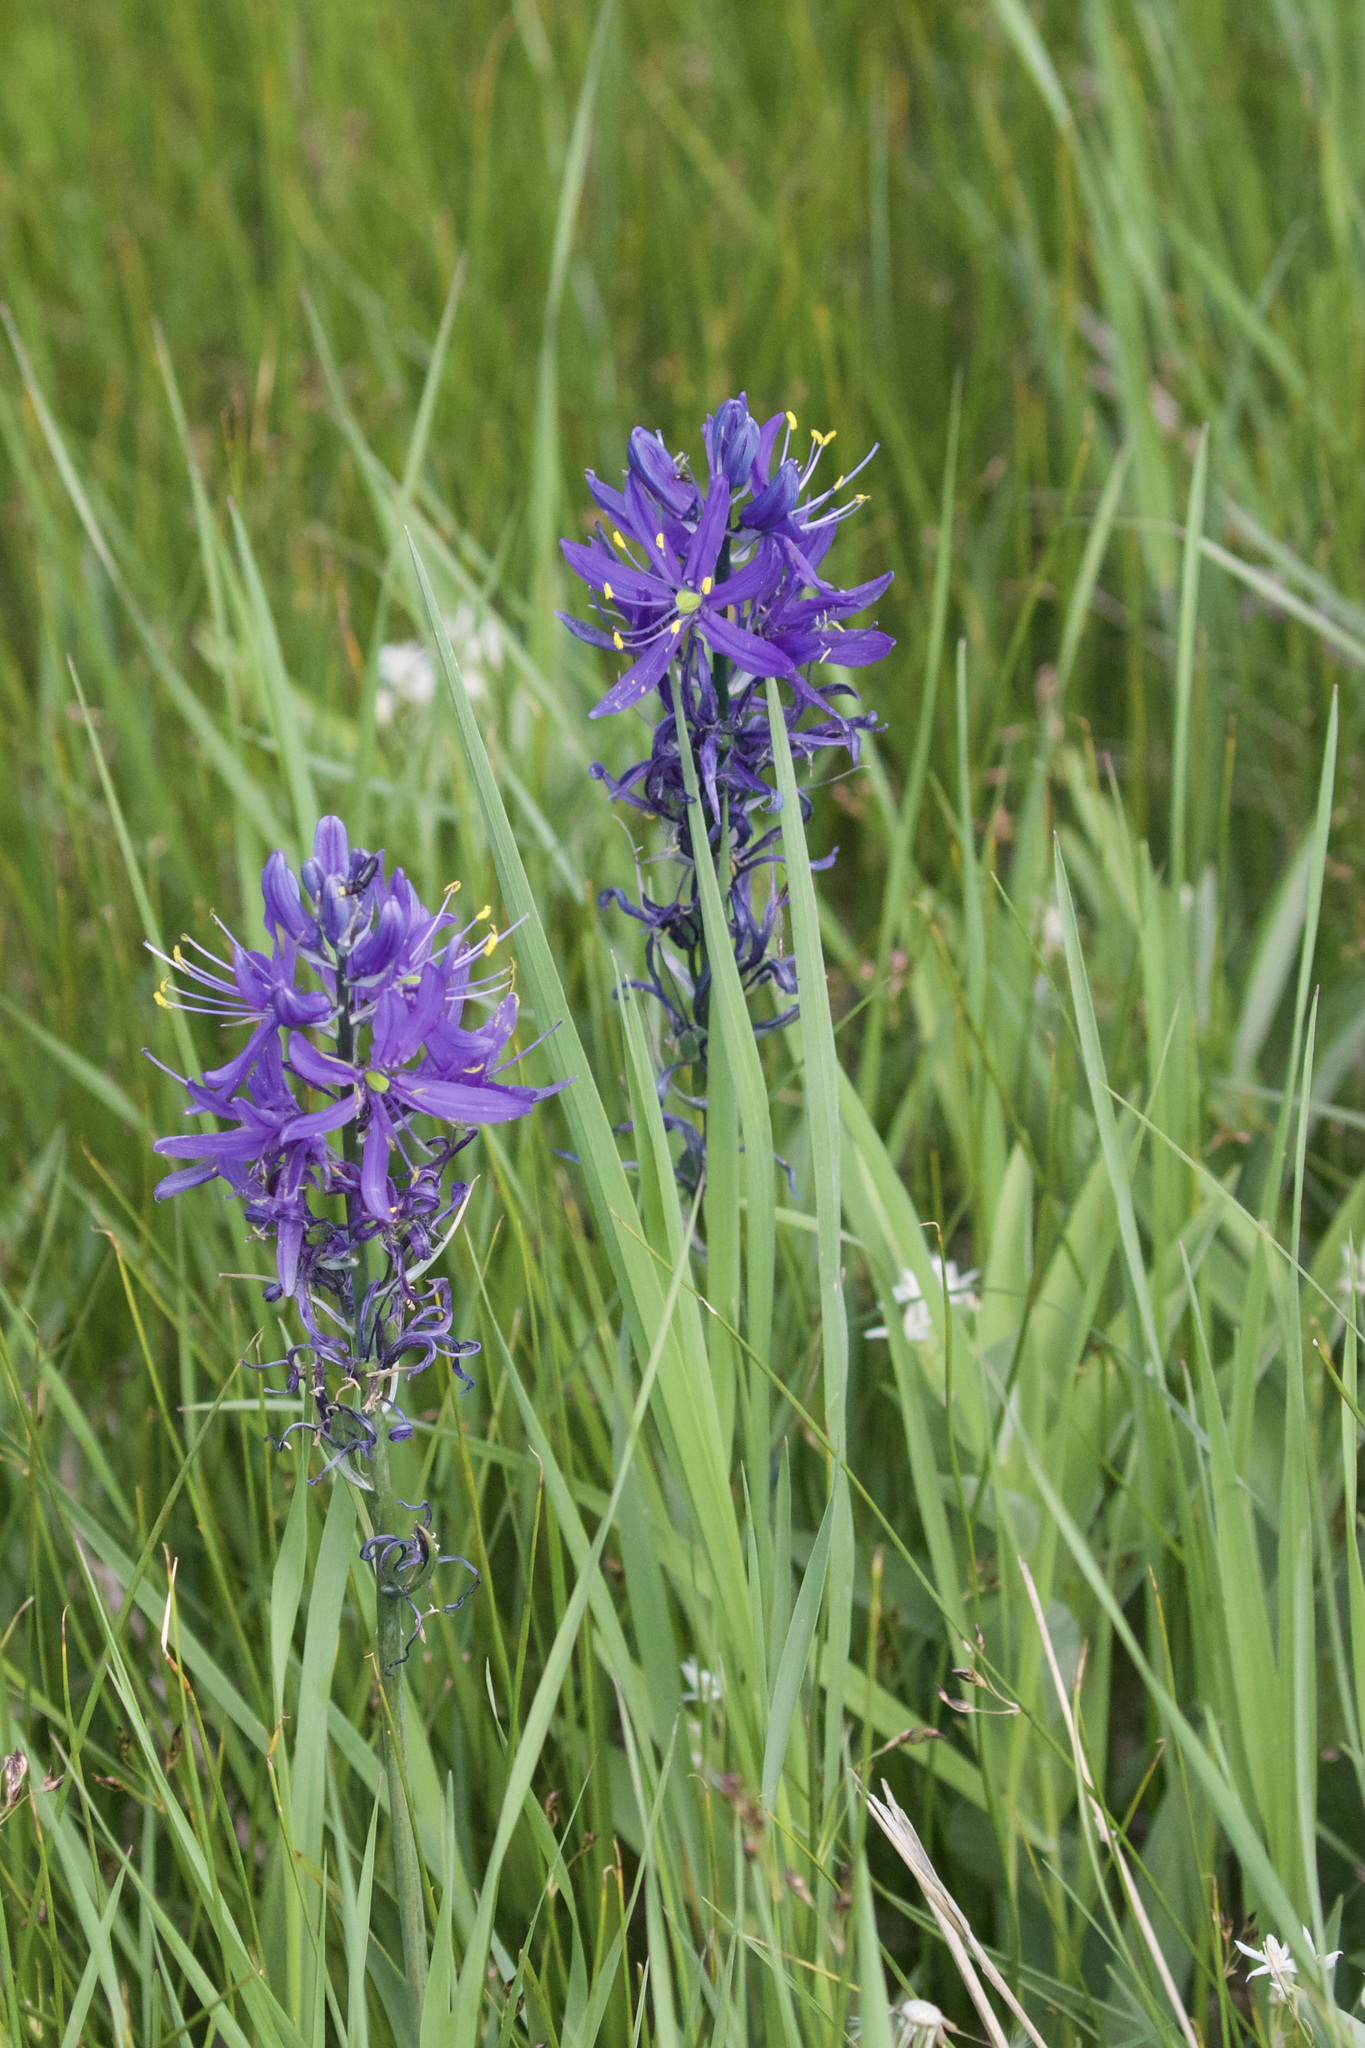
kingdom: Plantae
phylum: Tracheophyta
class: Liliopsida
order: Asparagales
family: Asparagaceae
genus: Camassia
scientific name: Camassia quamash
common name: Common camas
